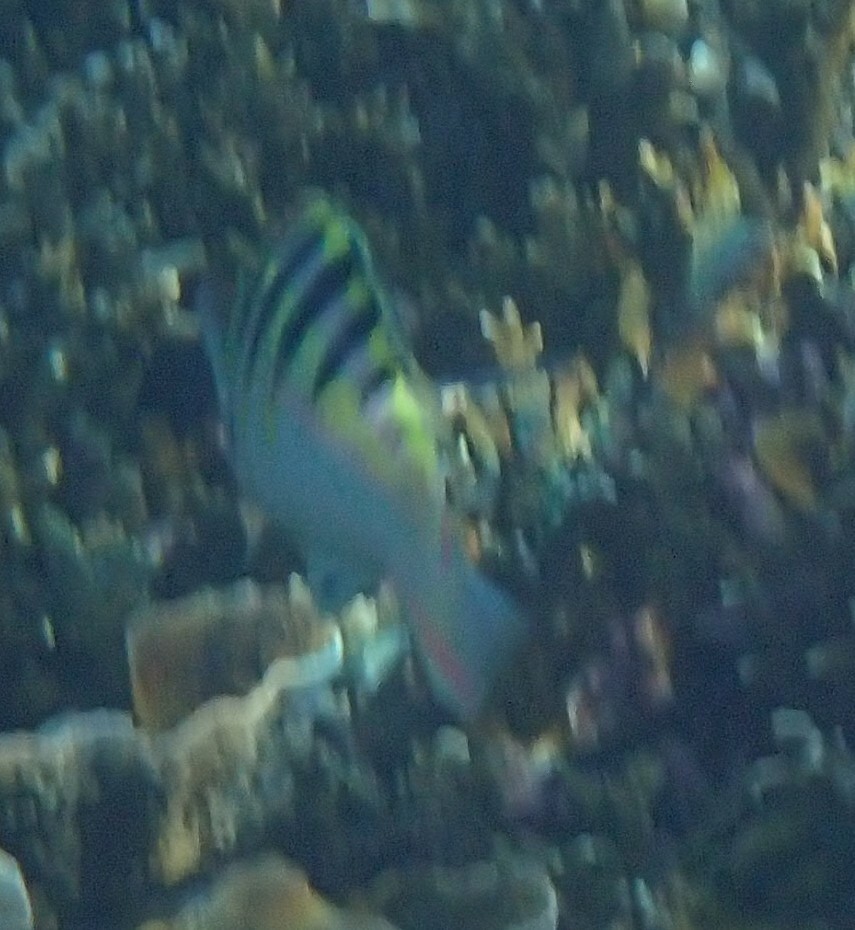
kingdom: Animalia
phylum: Chordata
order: Perciformes
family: Labridae
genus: Thalassoma
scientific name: Thalassoma hardwicke
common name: Sixbar wrasse
